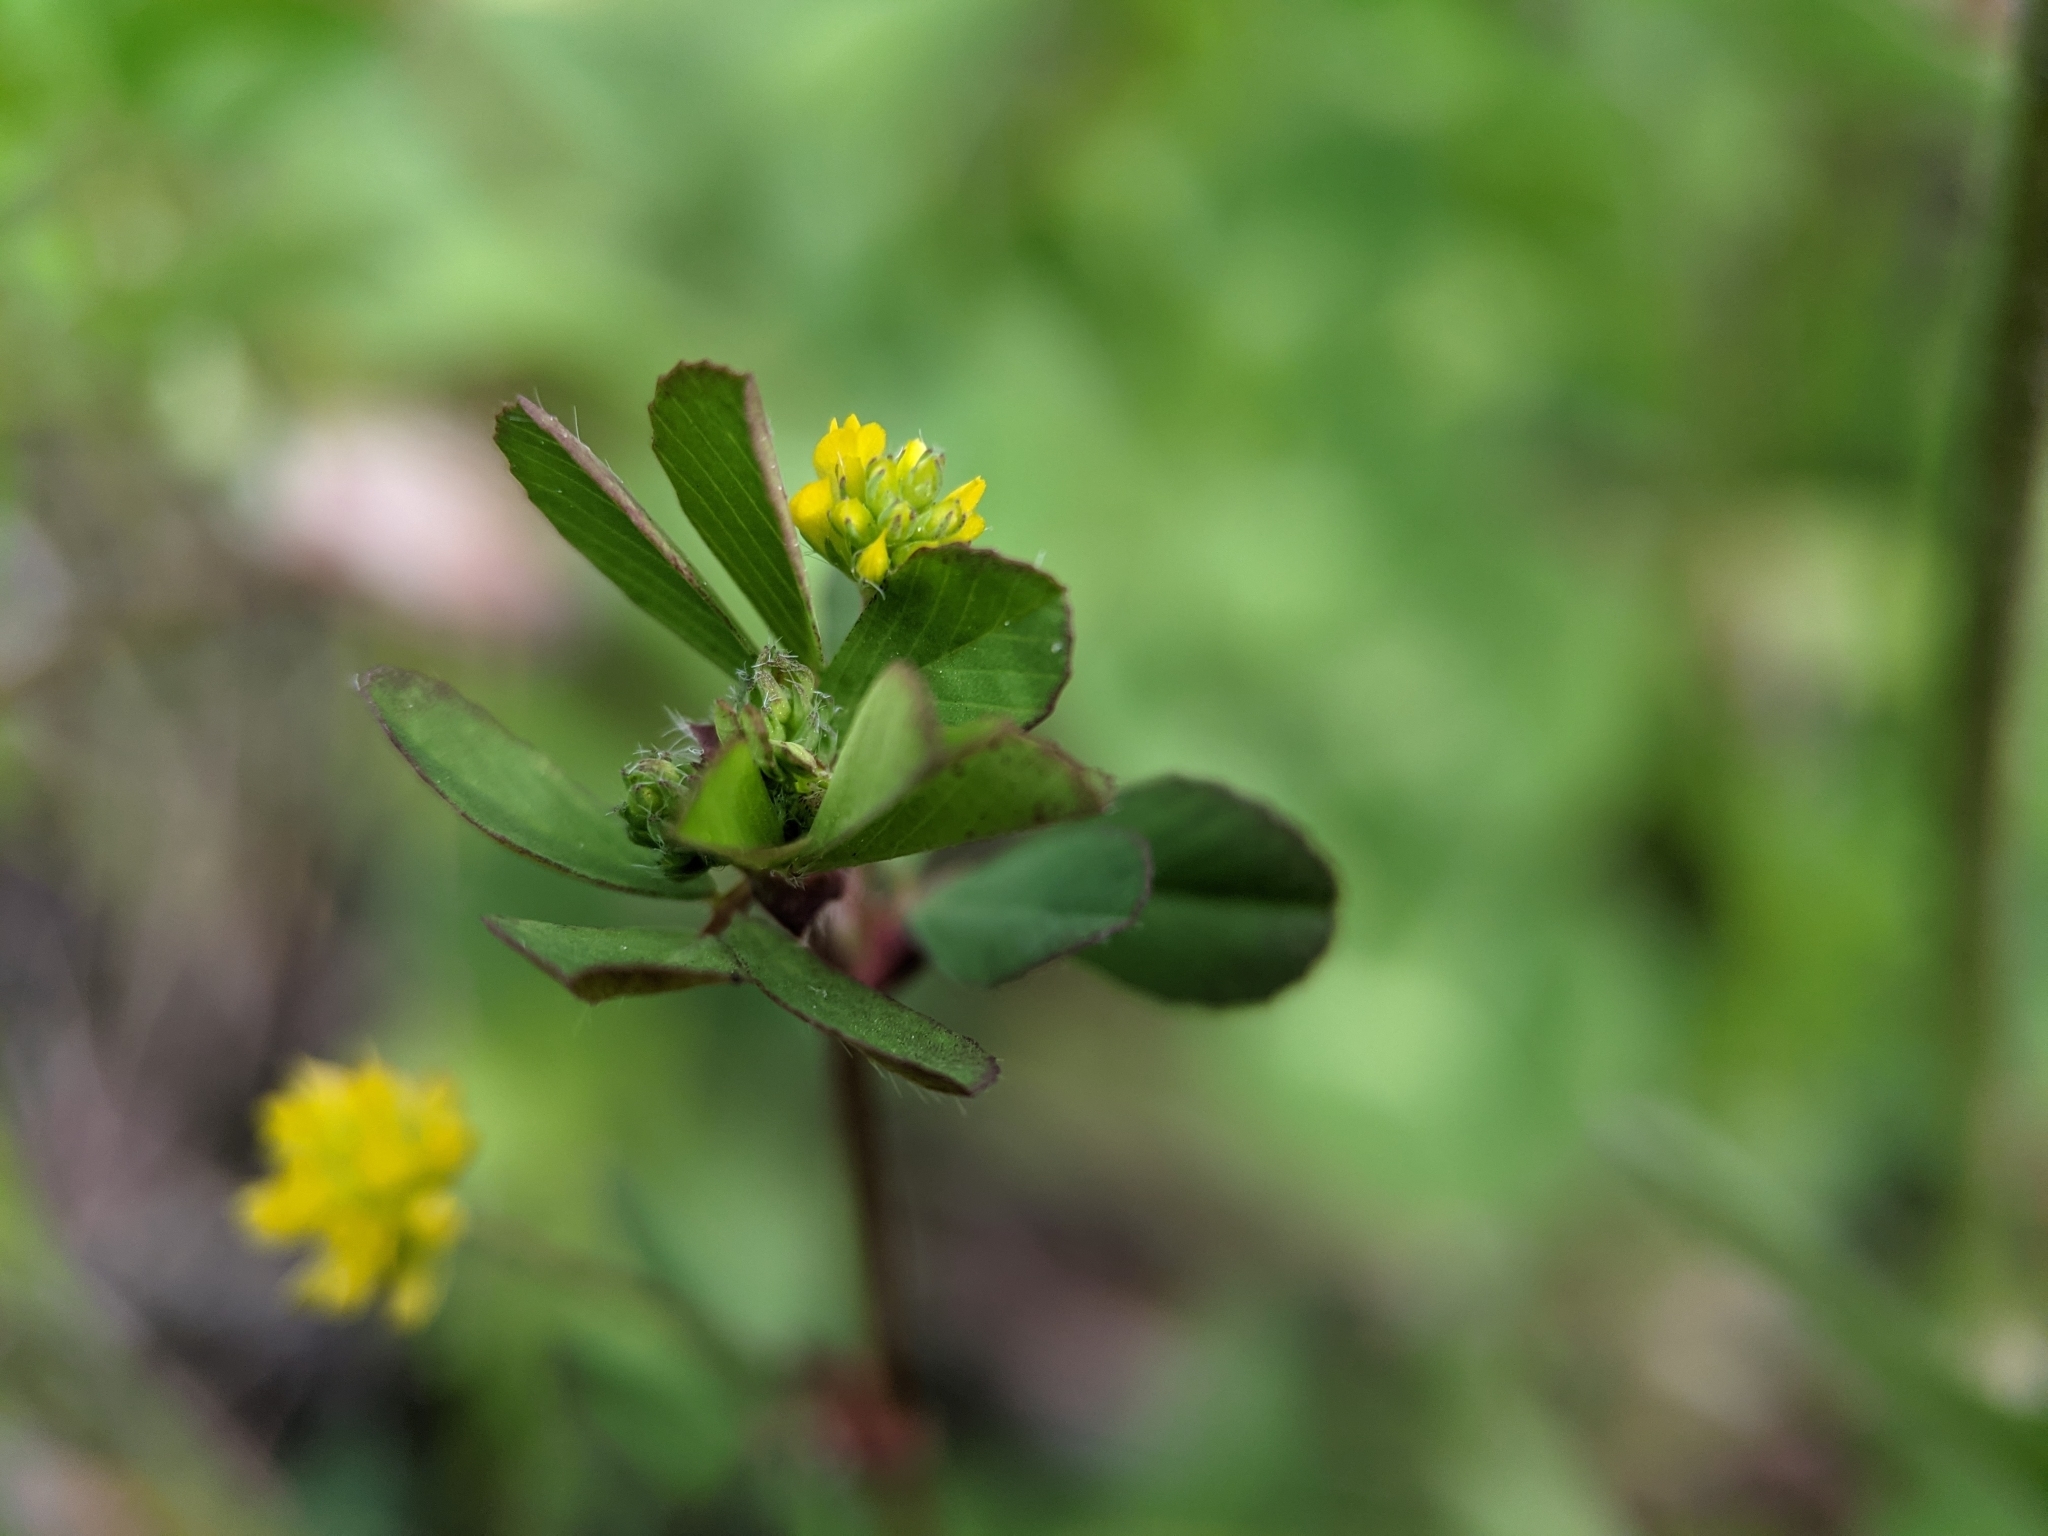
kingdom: Plantae
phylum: Tracheophyta
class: Magnoliopsida
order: Fabales
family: Fabaceae
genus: Trifolium
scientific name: Trifolium dubium
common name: Suckling clover
